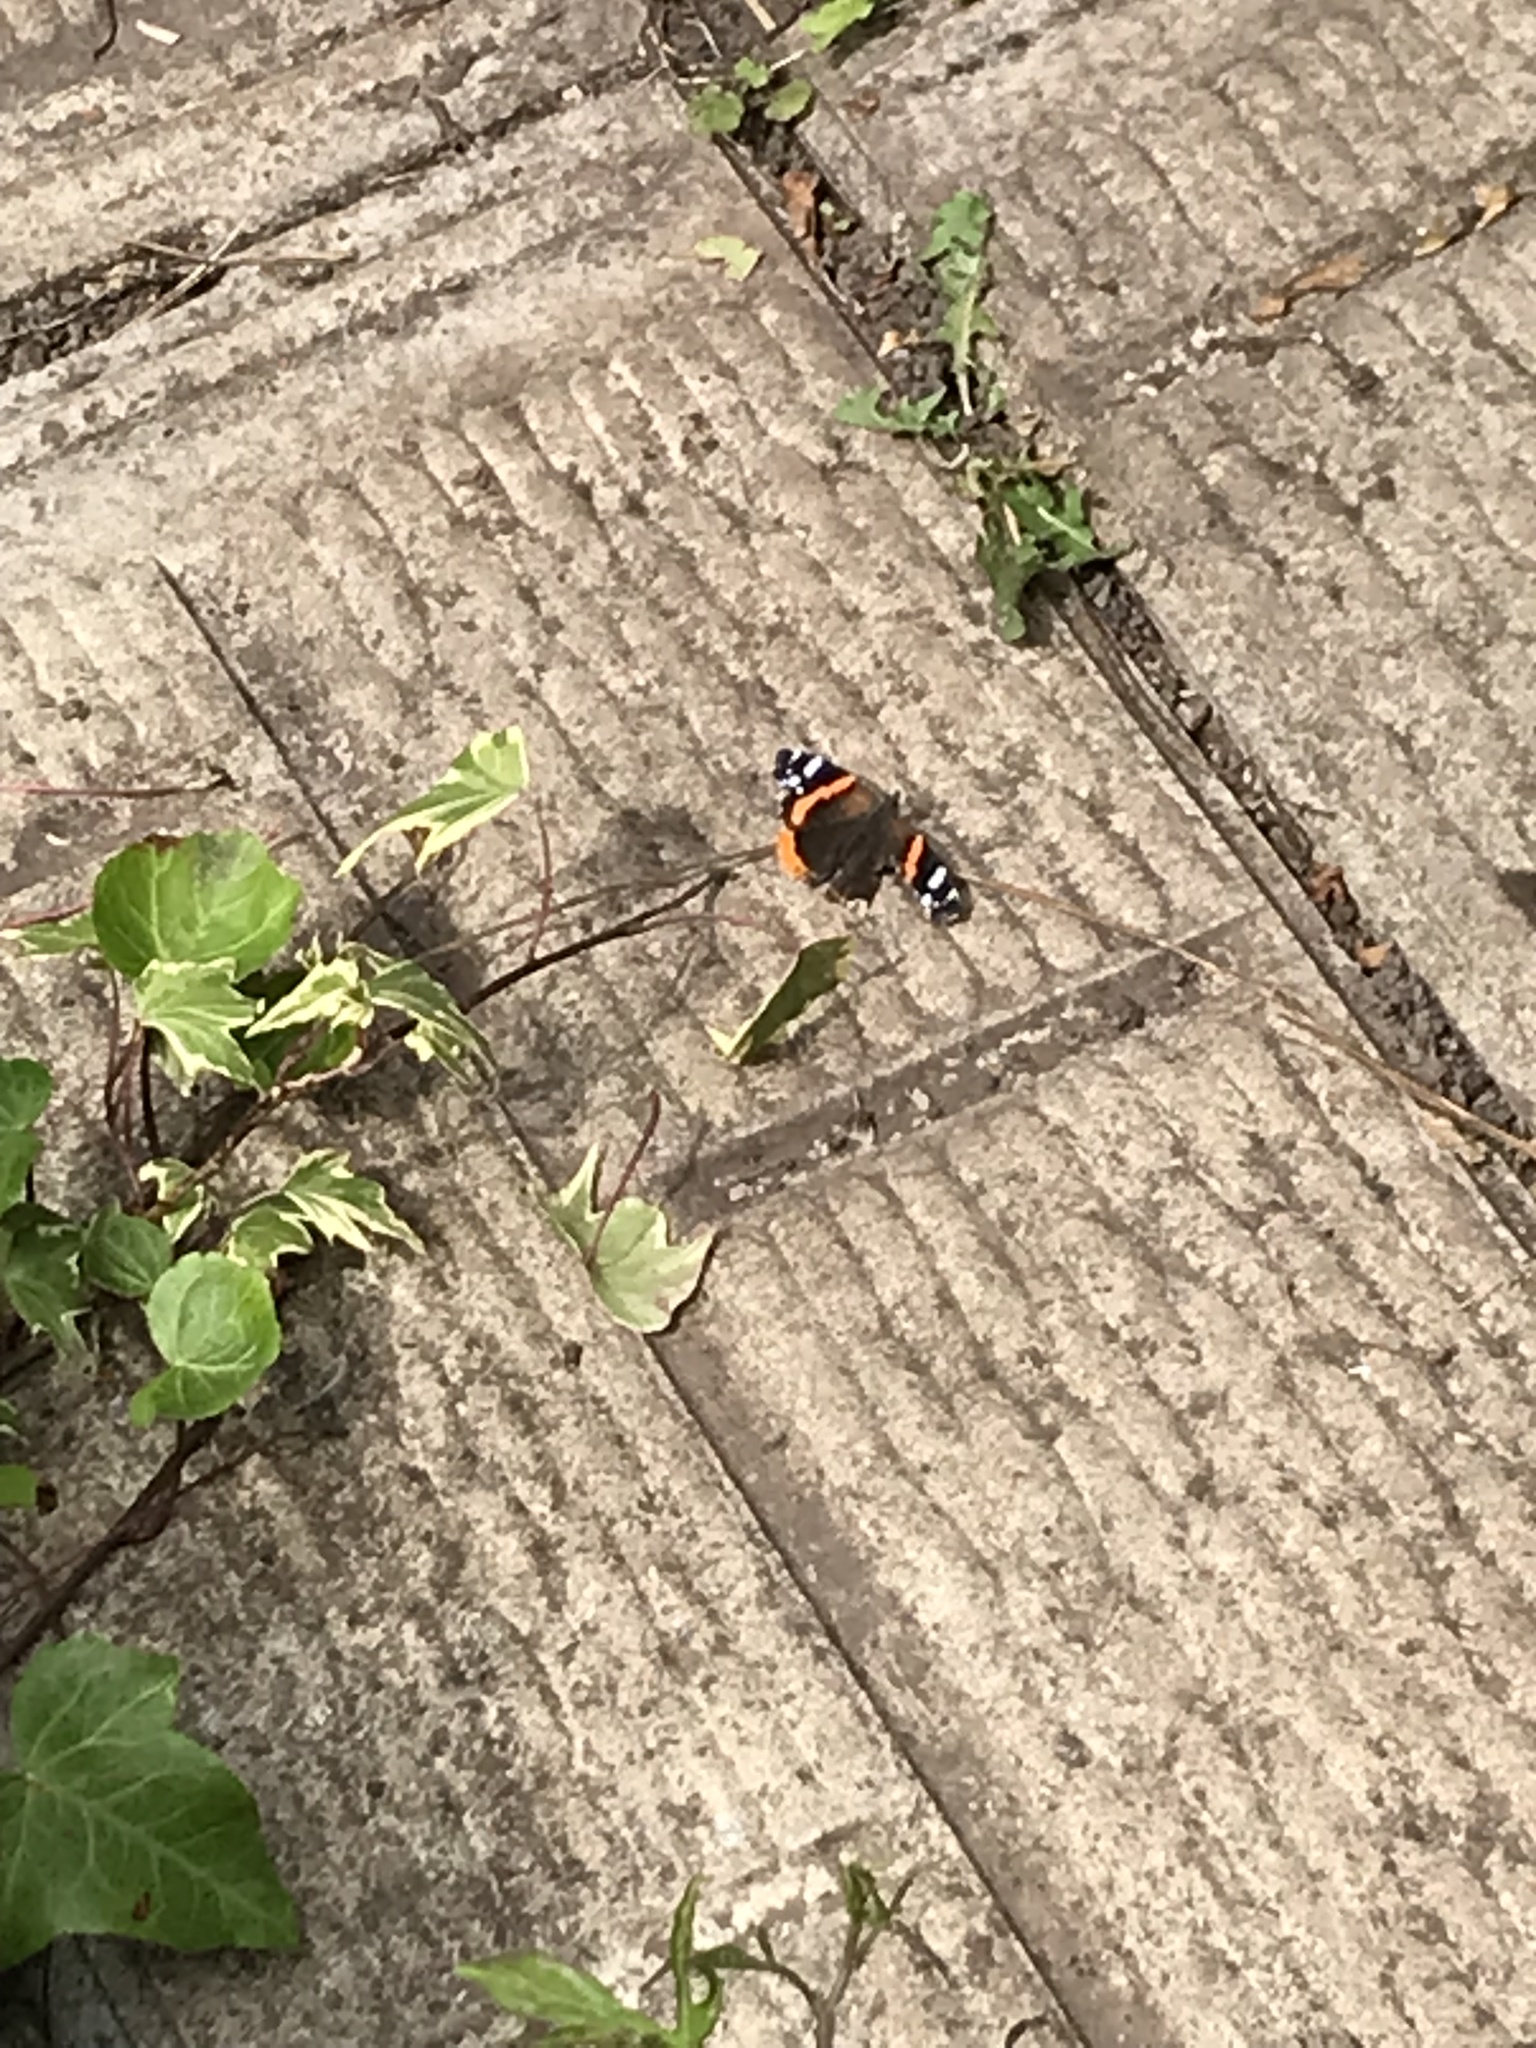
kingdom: Animalia
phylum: Arthropoda
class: Insecta
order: Lepidoptera
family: Nymphalidae
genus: Vanessa
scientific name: Vanessa atalanta
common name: Red admiral
